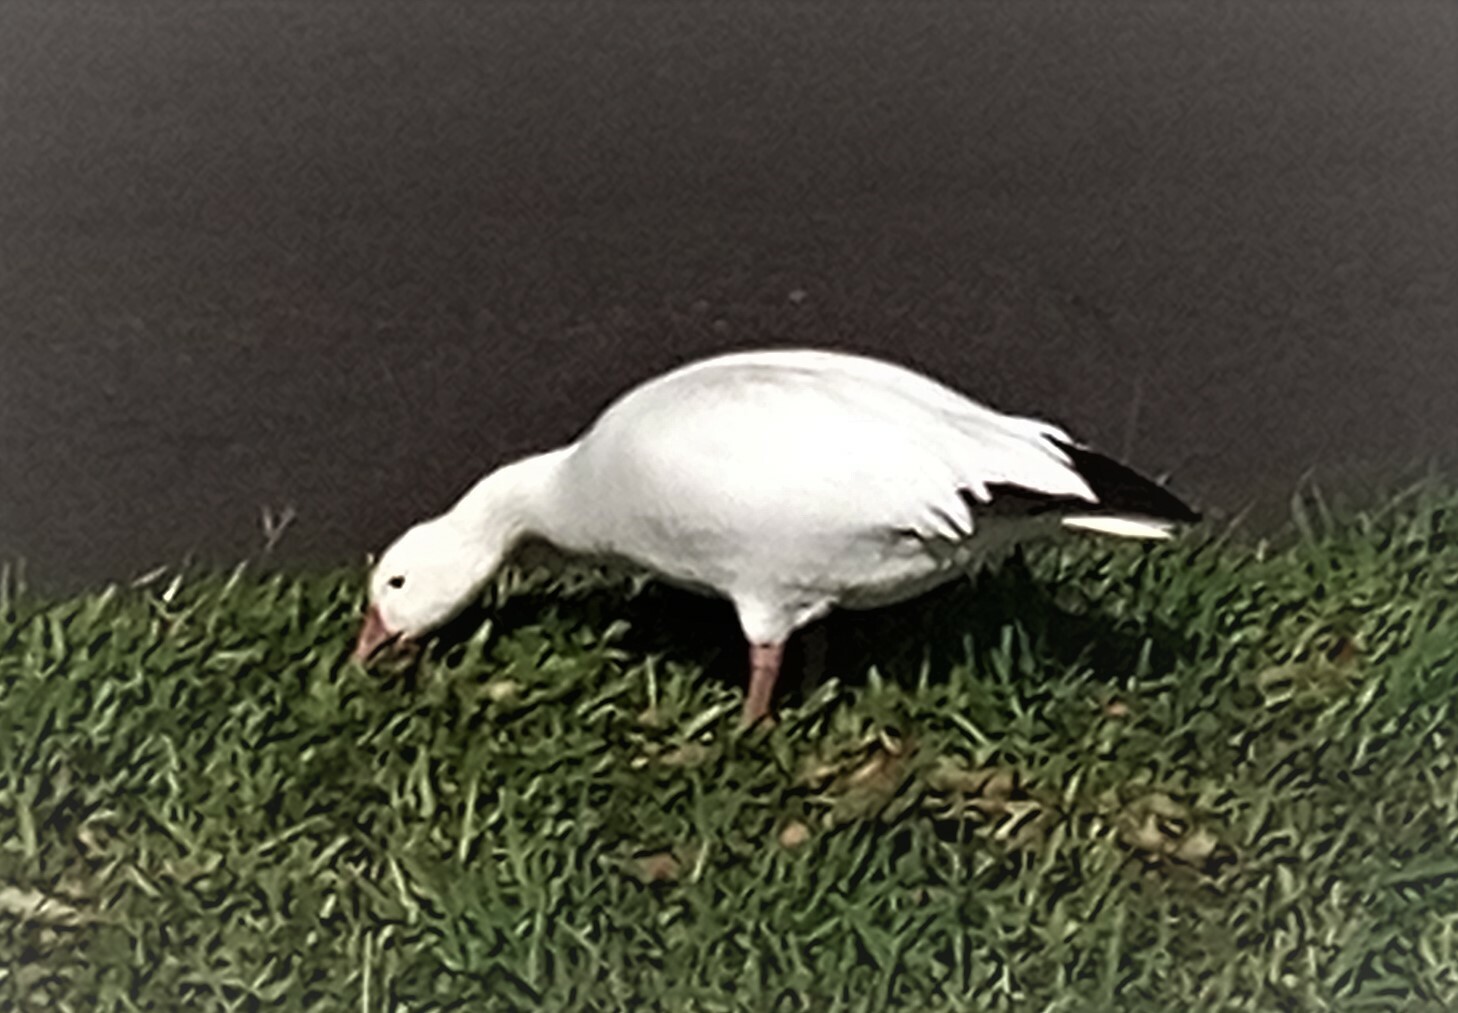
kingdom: Animalia
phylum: Chordata
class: Aves
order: Anseriformes
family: Anatidae
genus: Anser
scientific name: Anser caerulescens
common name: Snow goose
